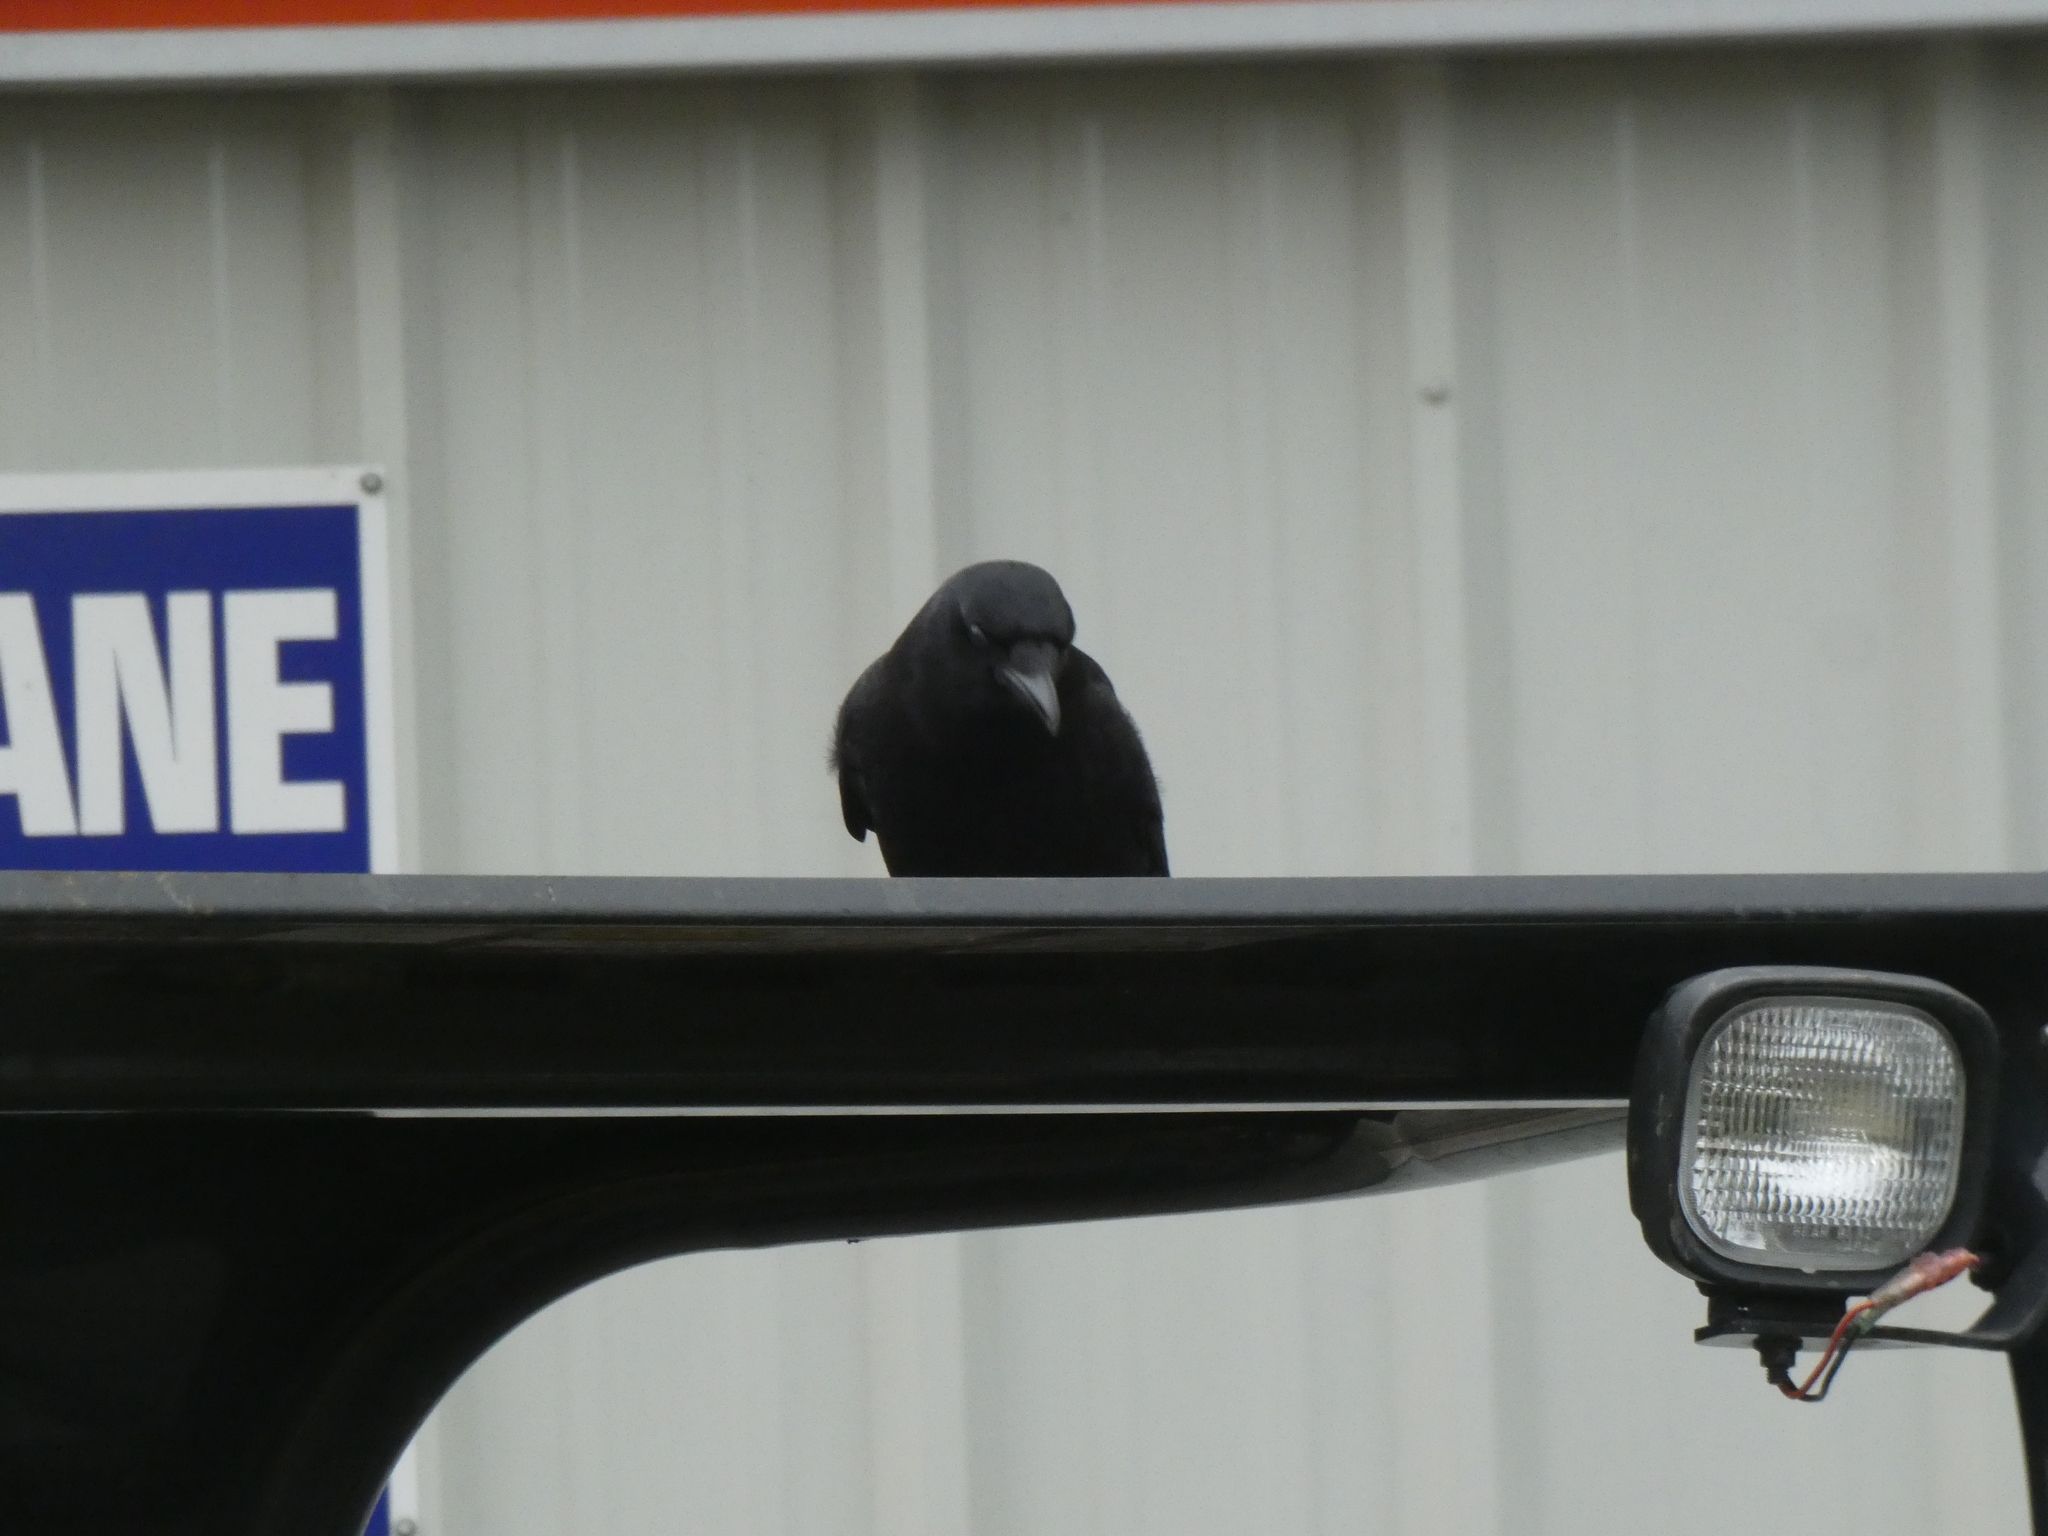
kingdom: Animalia
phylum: Chordata
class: Aves
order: Passeriformes
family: Corvidae
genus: Corvus
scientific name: Corvus brachyrhynchos
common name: American crow
